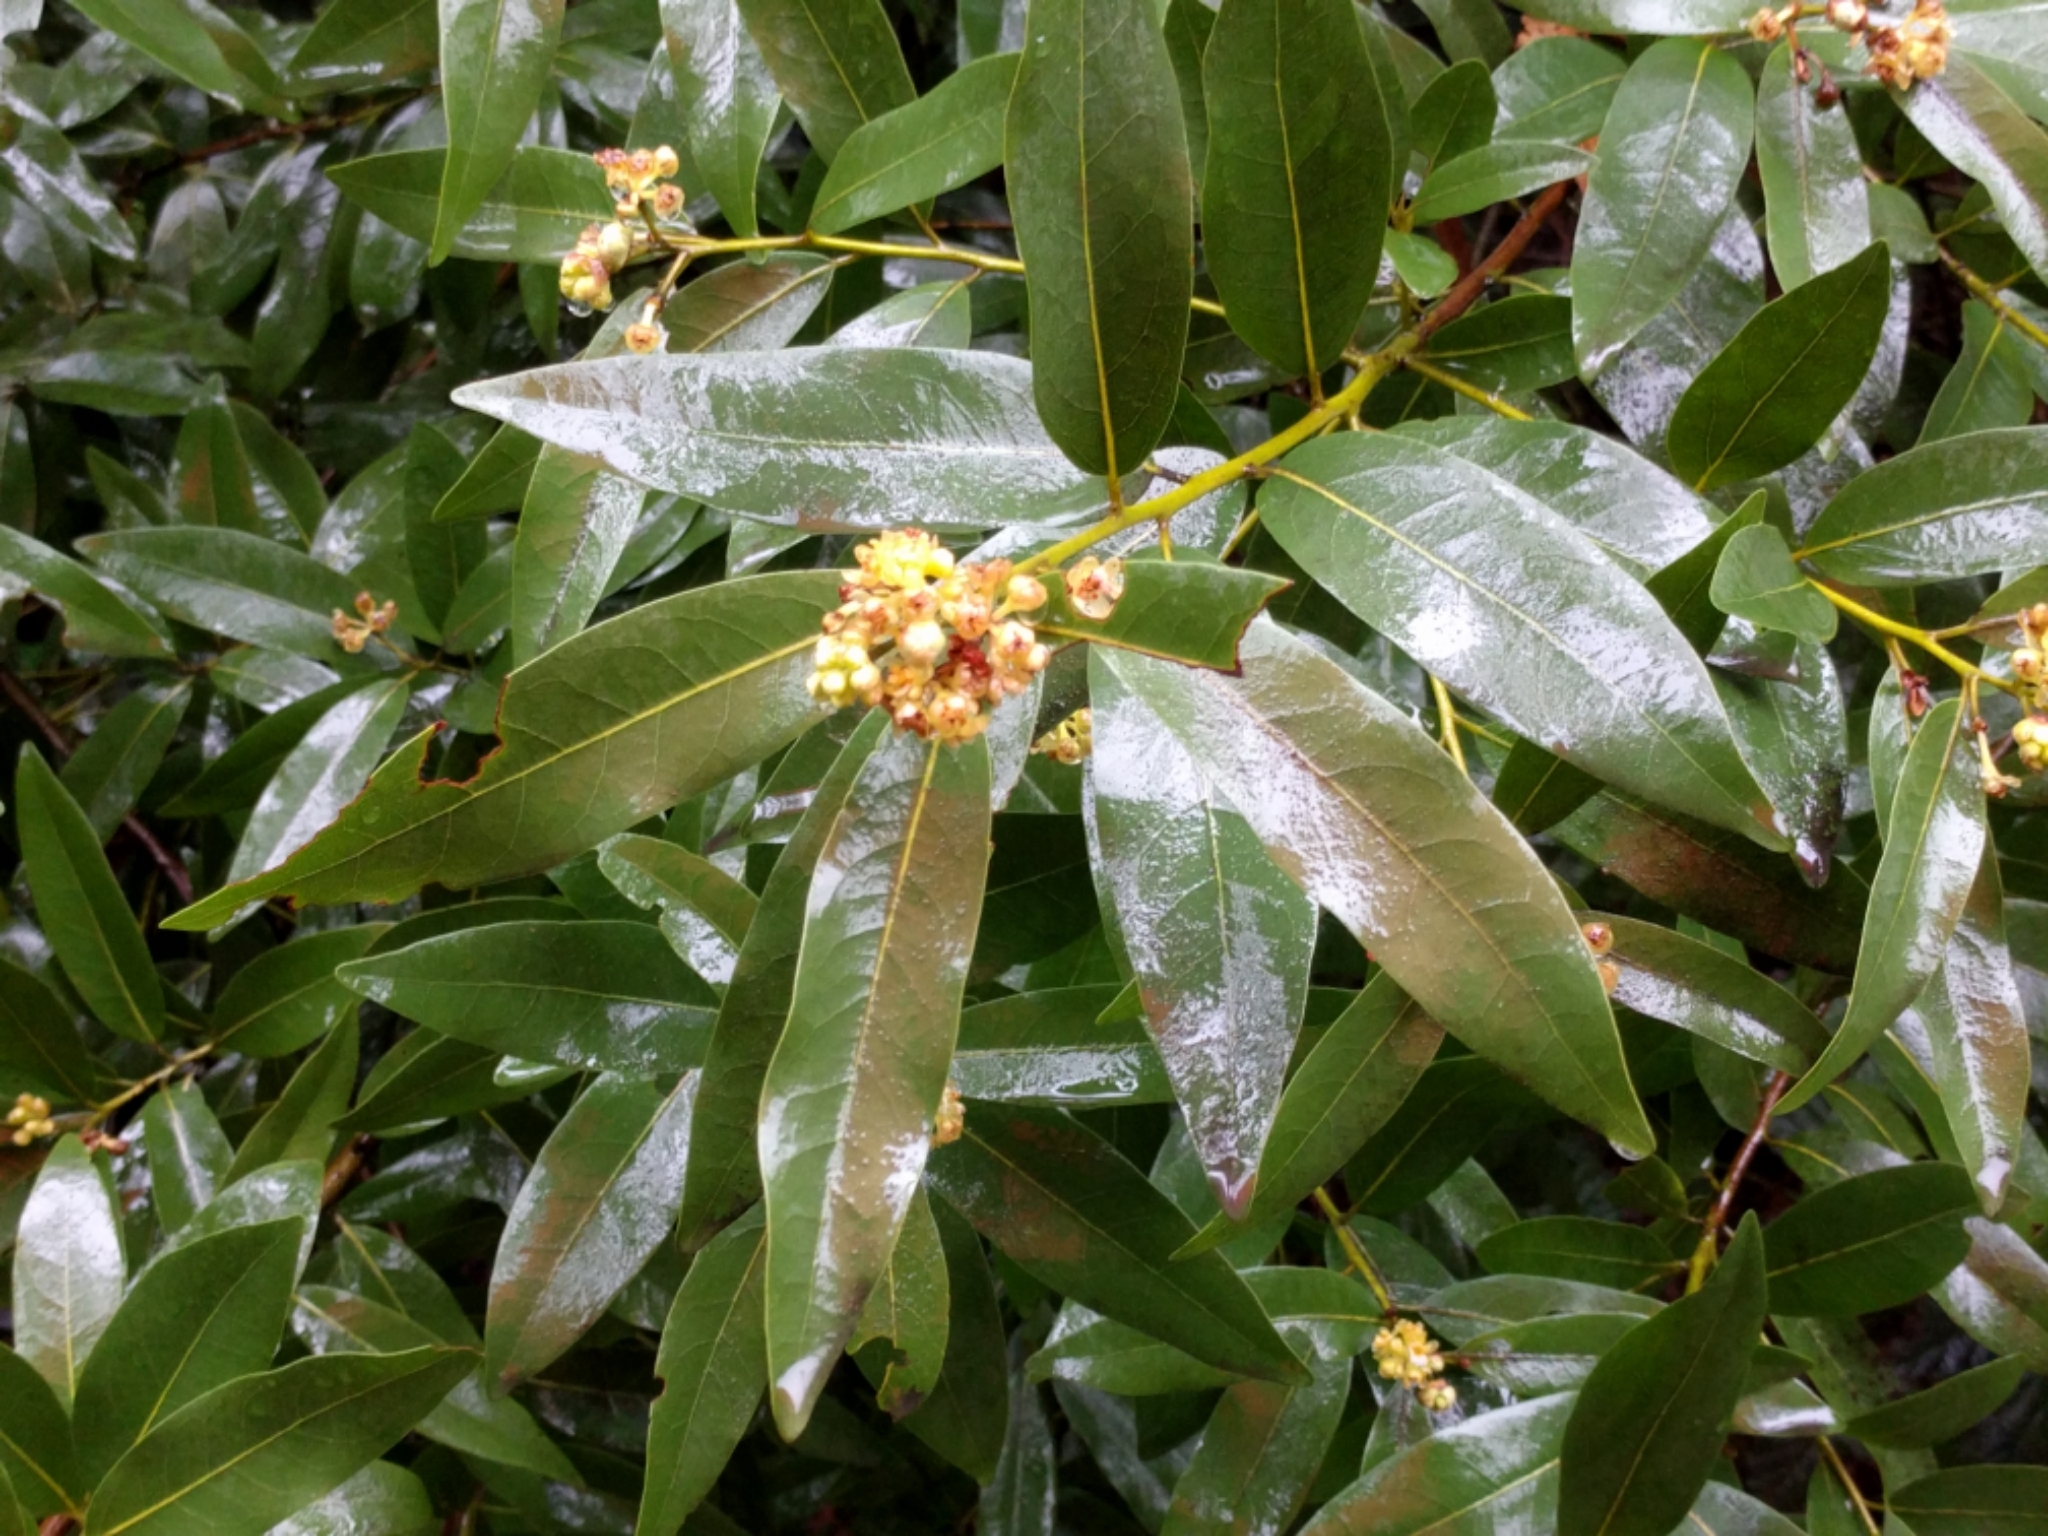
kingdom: Plantae
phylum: Tracheophyta
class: Magnoliopsida
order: Laurales
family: Lauraceae
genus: Umbellularia
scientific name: Umbellularia californica
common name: California bay
